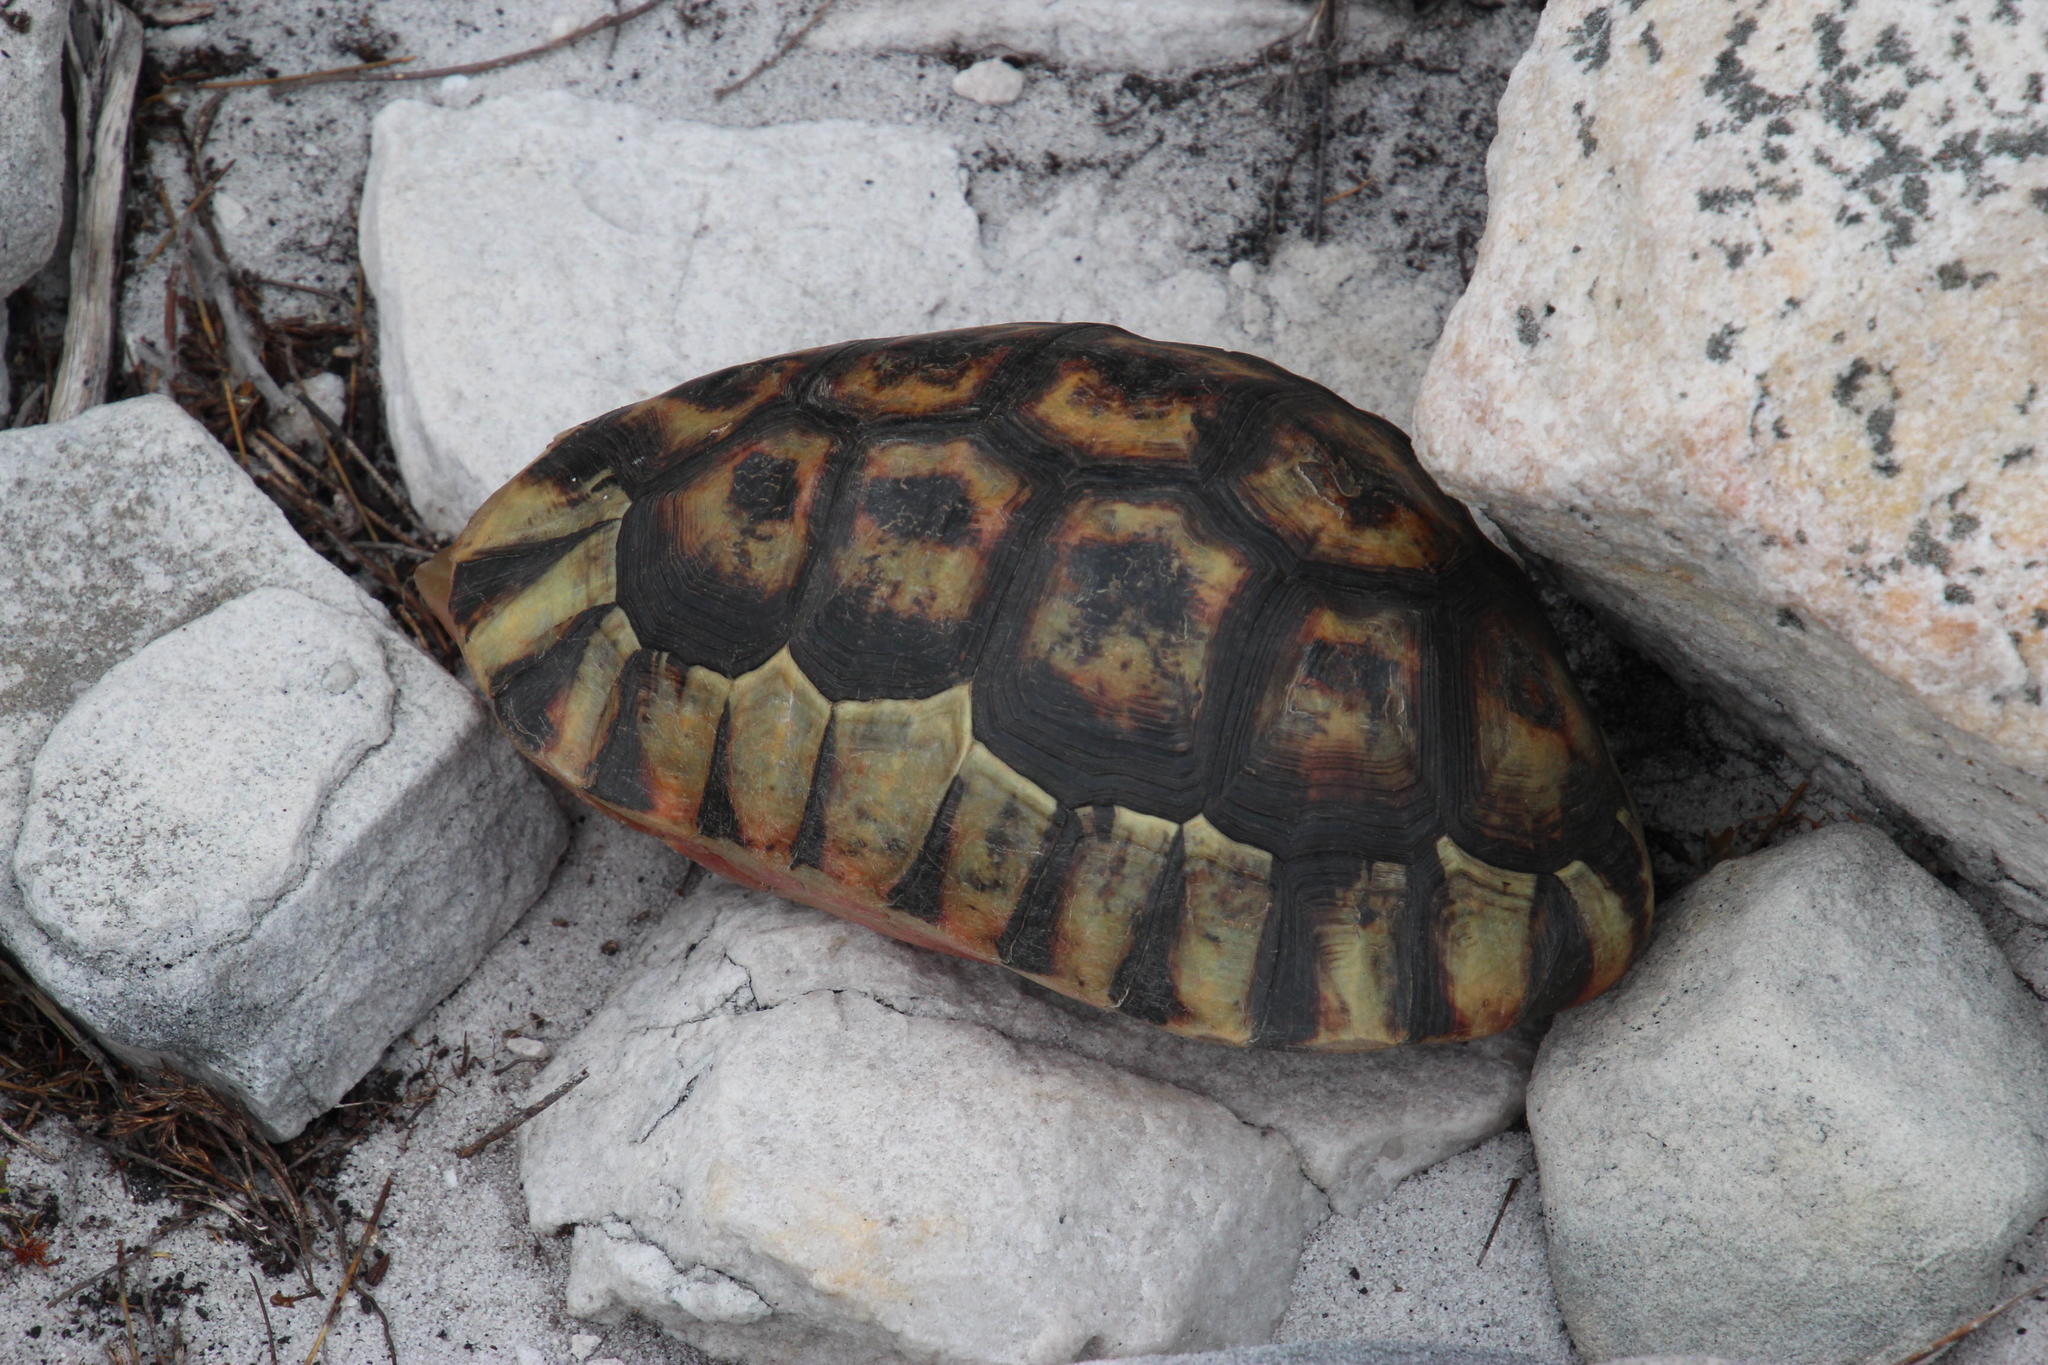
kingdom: Animalia
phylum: Chordata
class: Testudines
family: Testudinidae
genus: Chersina
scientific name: Chersina angulata
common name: South african bowsprit tortoise
